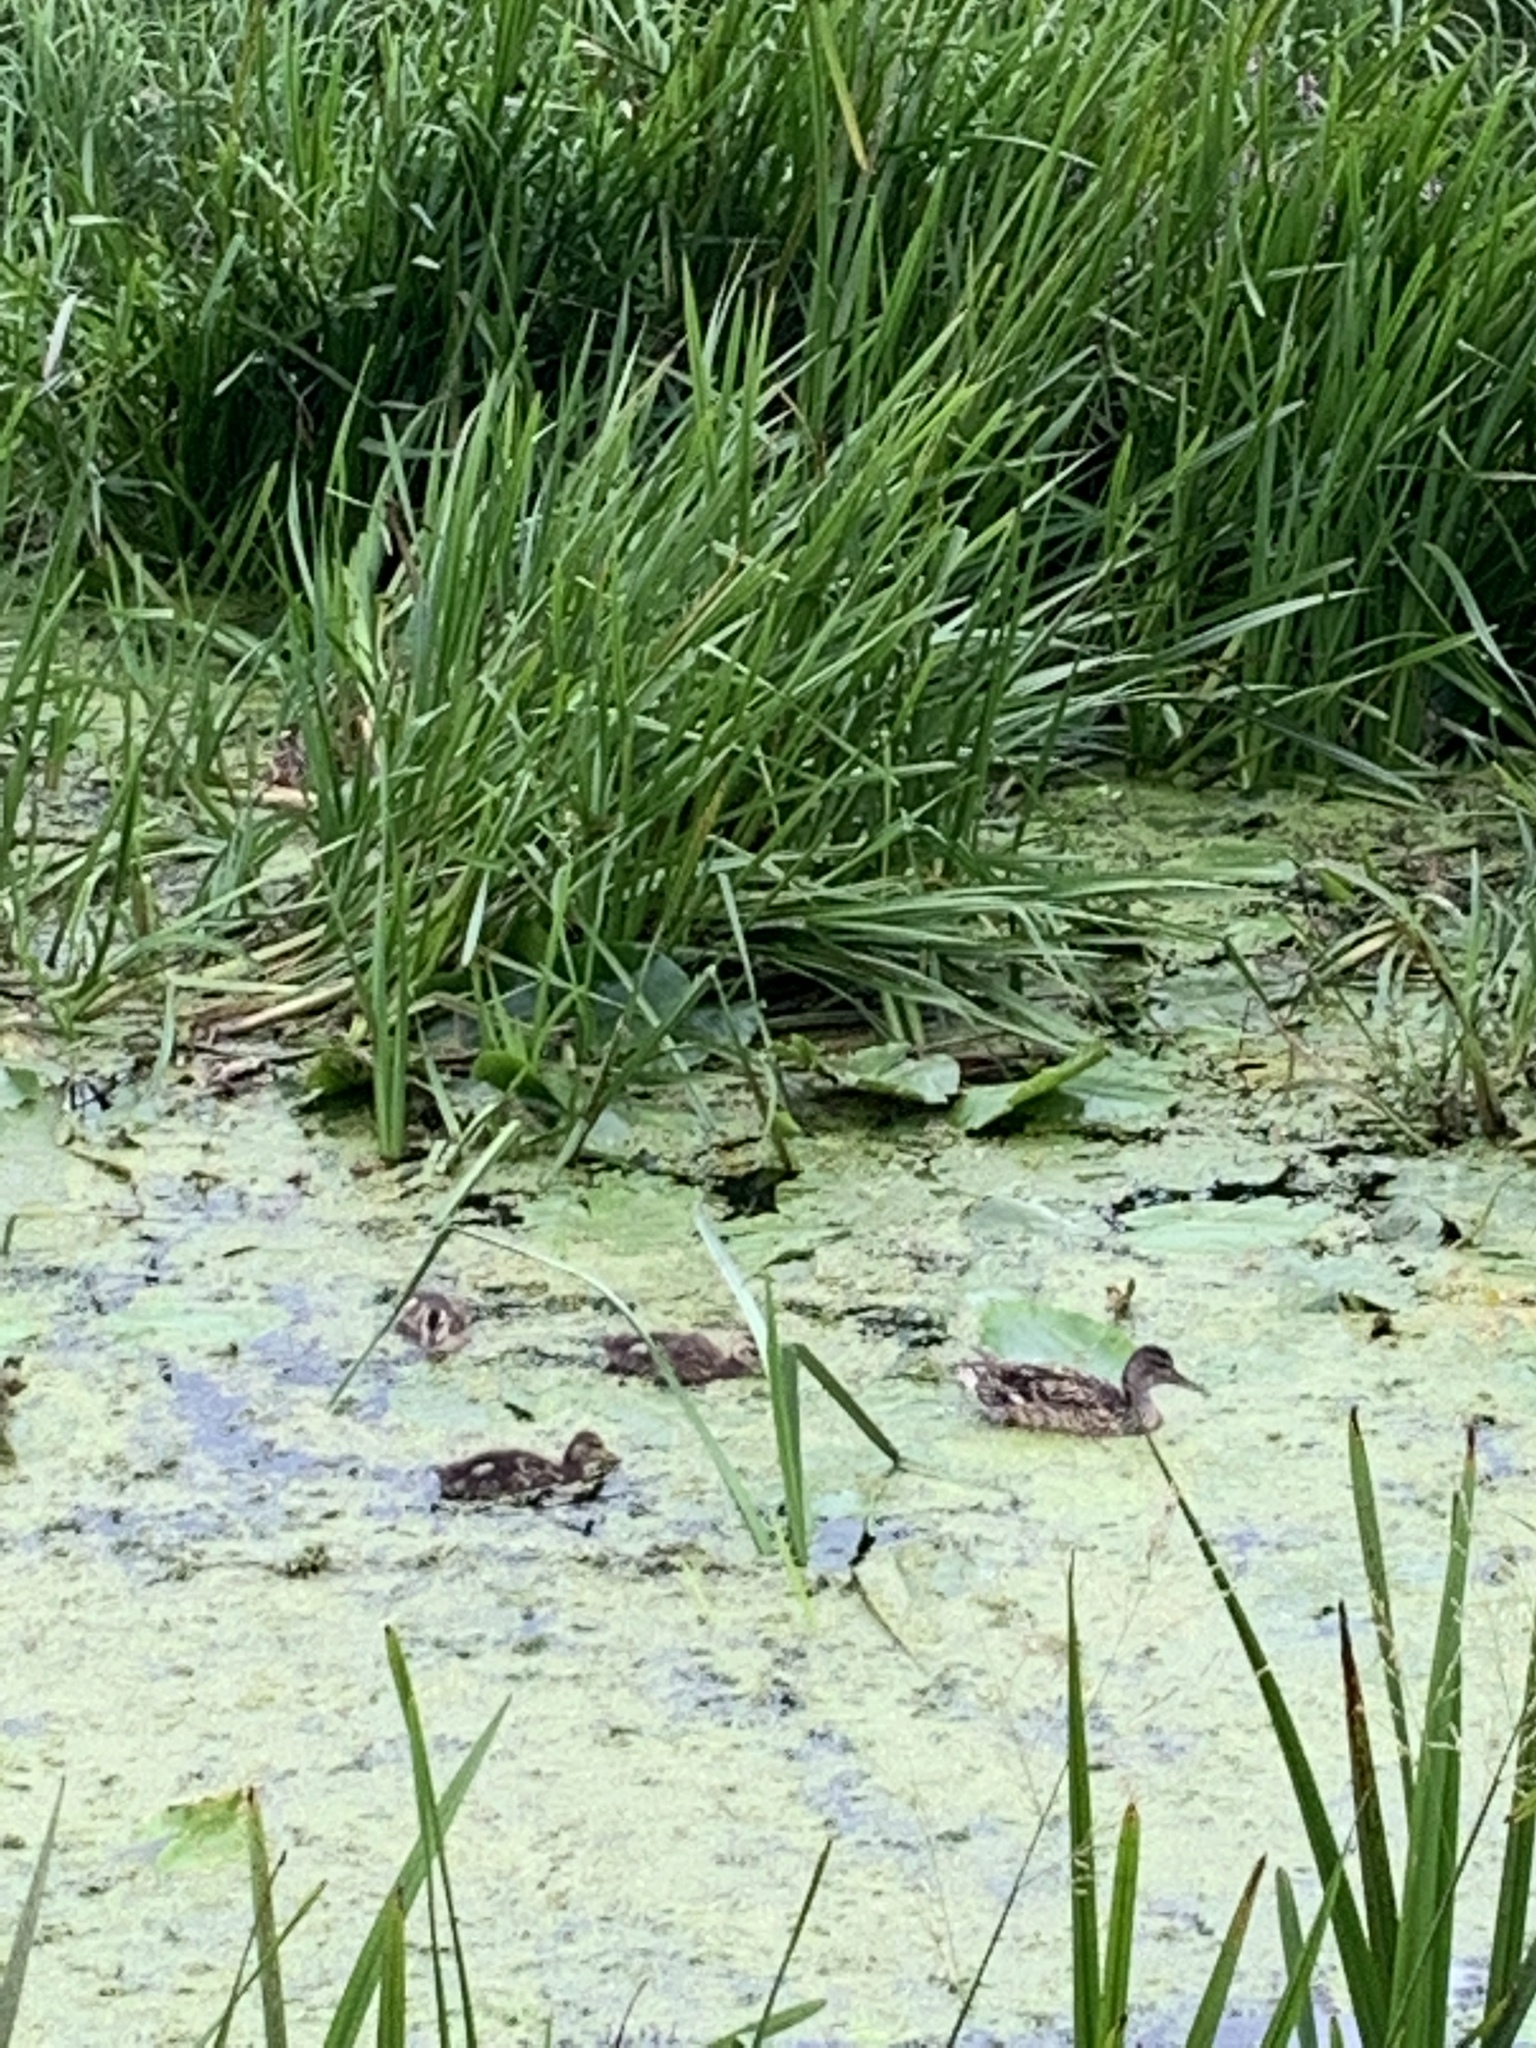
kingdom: Animalia
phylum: Chordata
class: Aves
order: Anseriformes
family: Anatidae
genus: Anas
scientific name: Anas platyrhynchos
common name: Mallard
